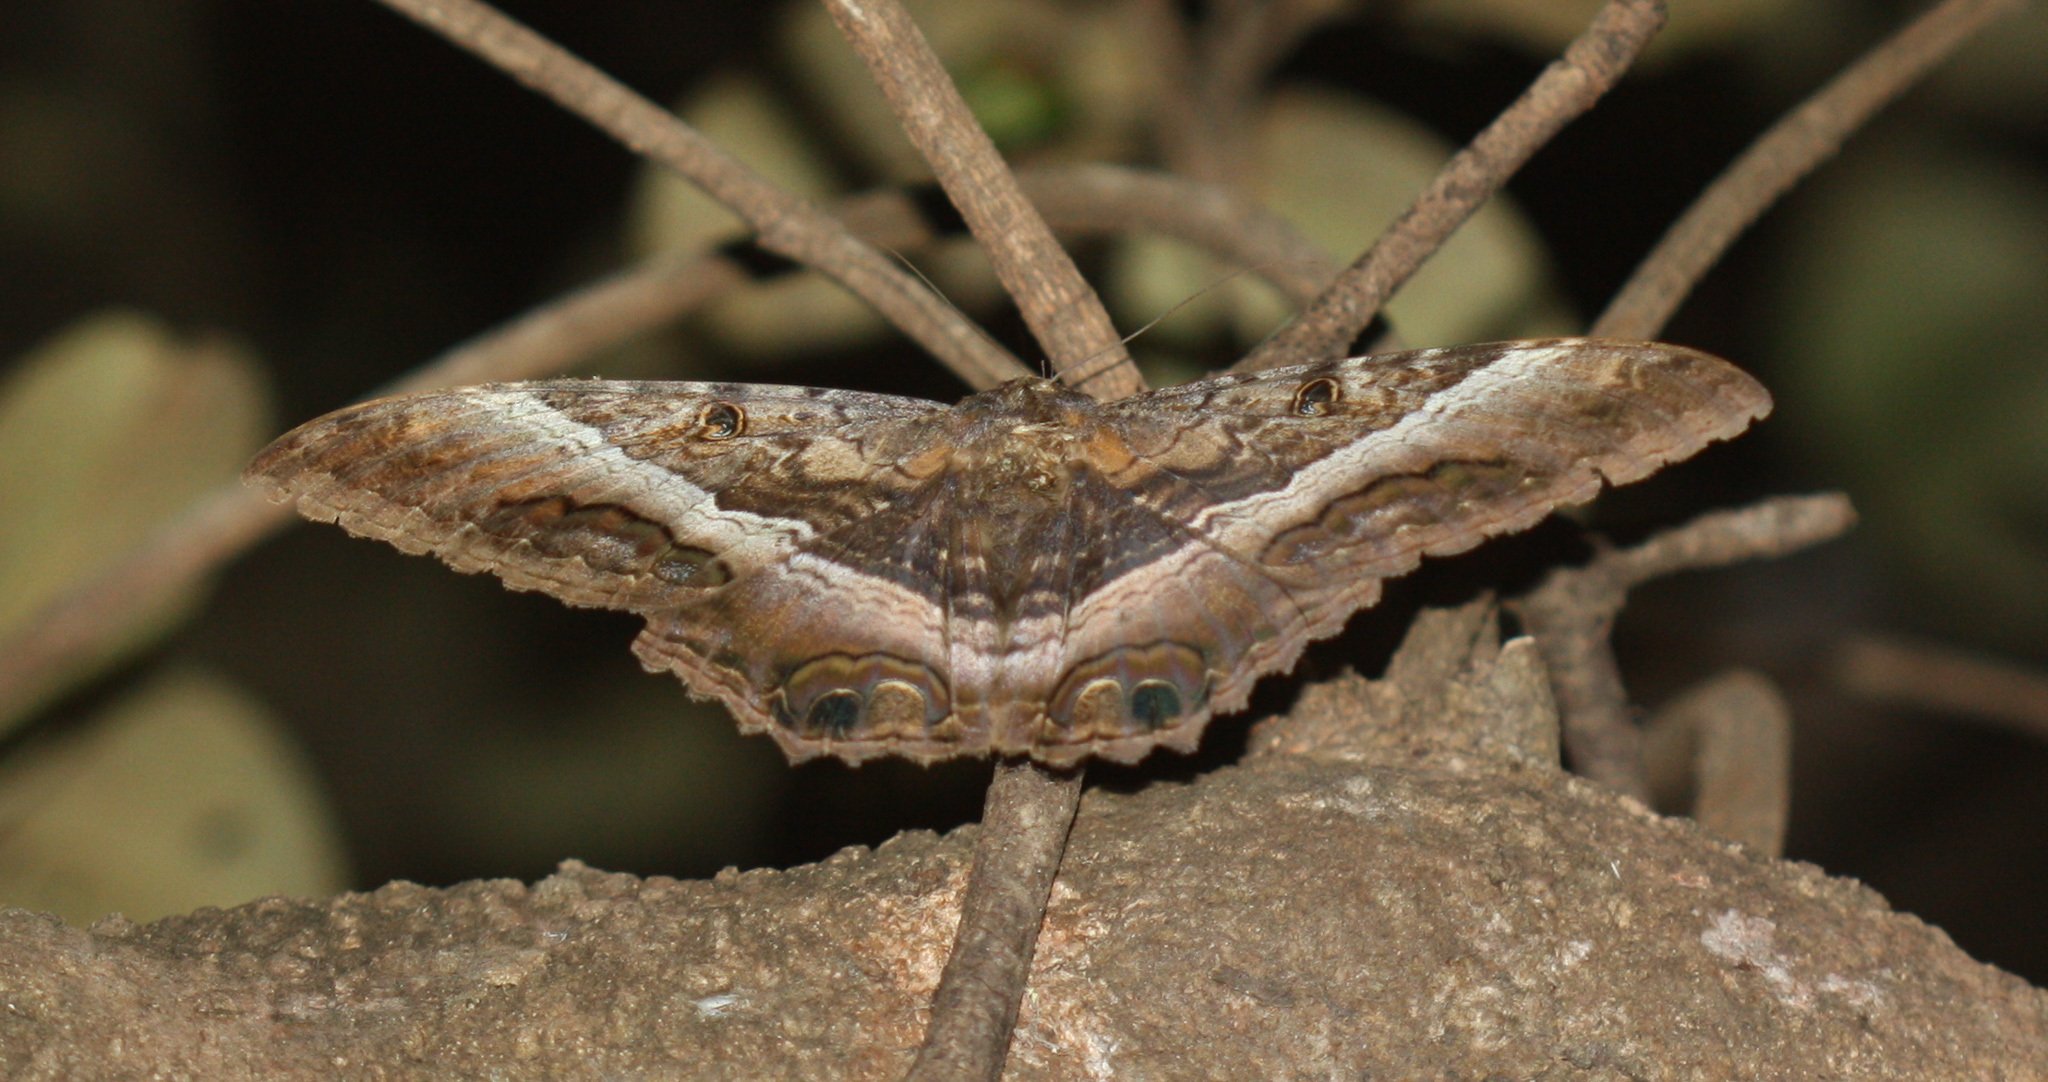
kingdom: Animalia
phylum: Arthropoda
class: Insecta
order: Lepidoptera
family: Erebidae
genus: Ascalapha
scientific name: Ascalapha odorata
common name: Black witch
